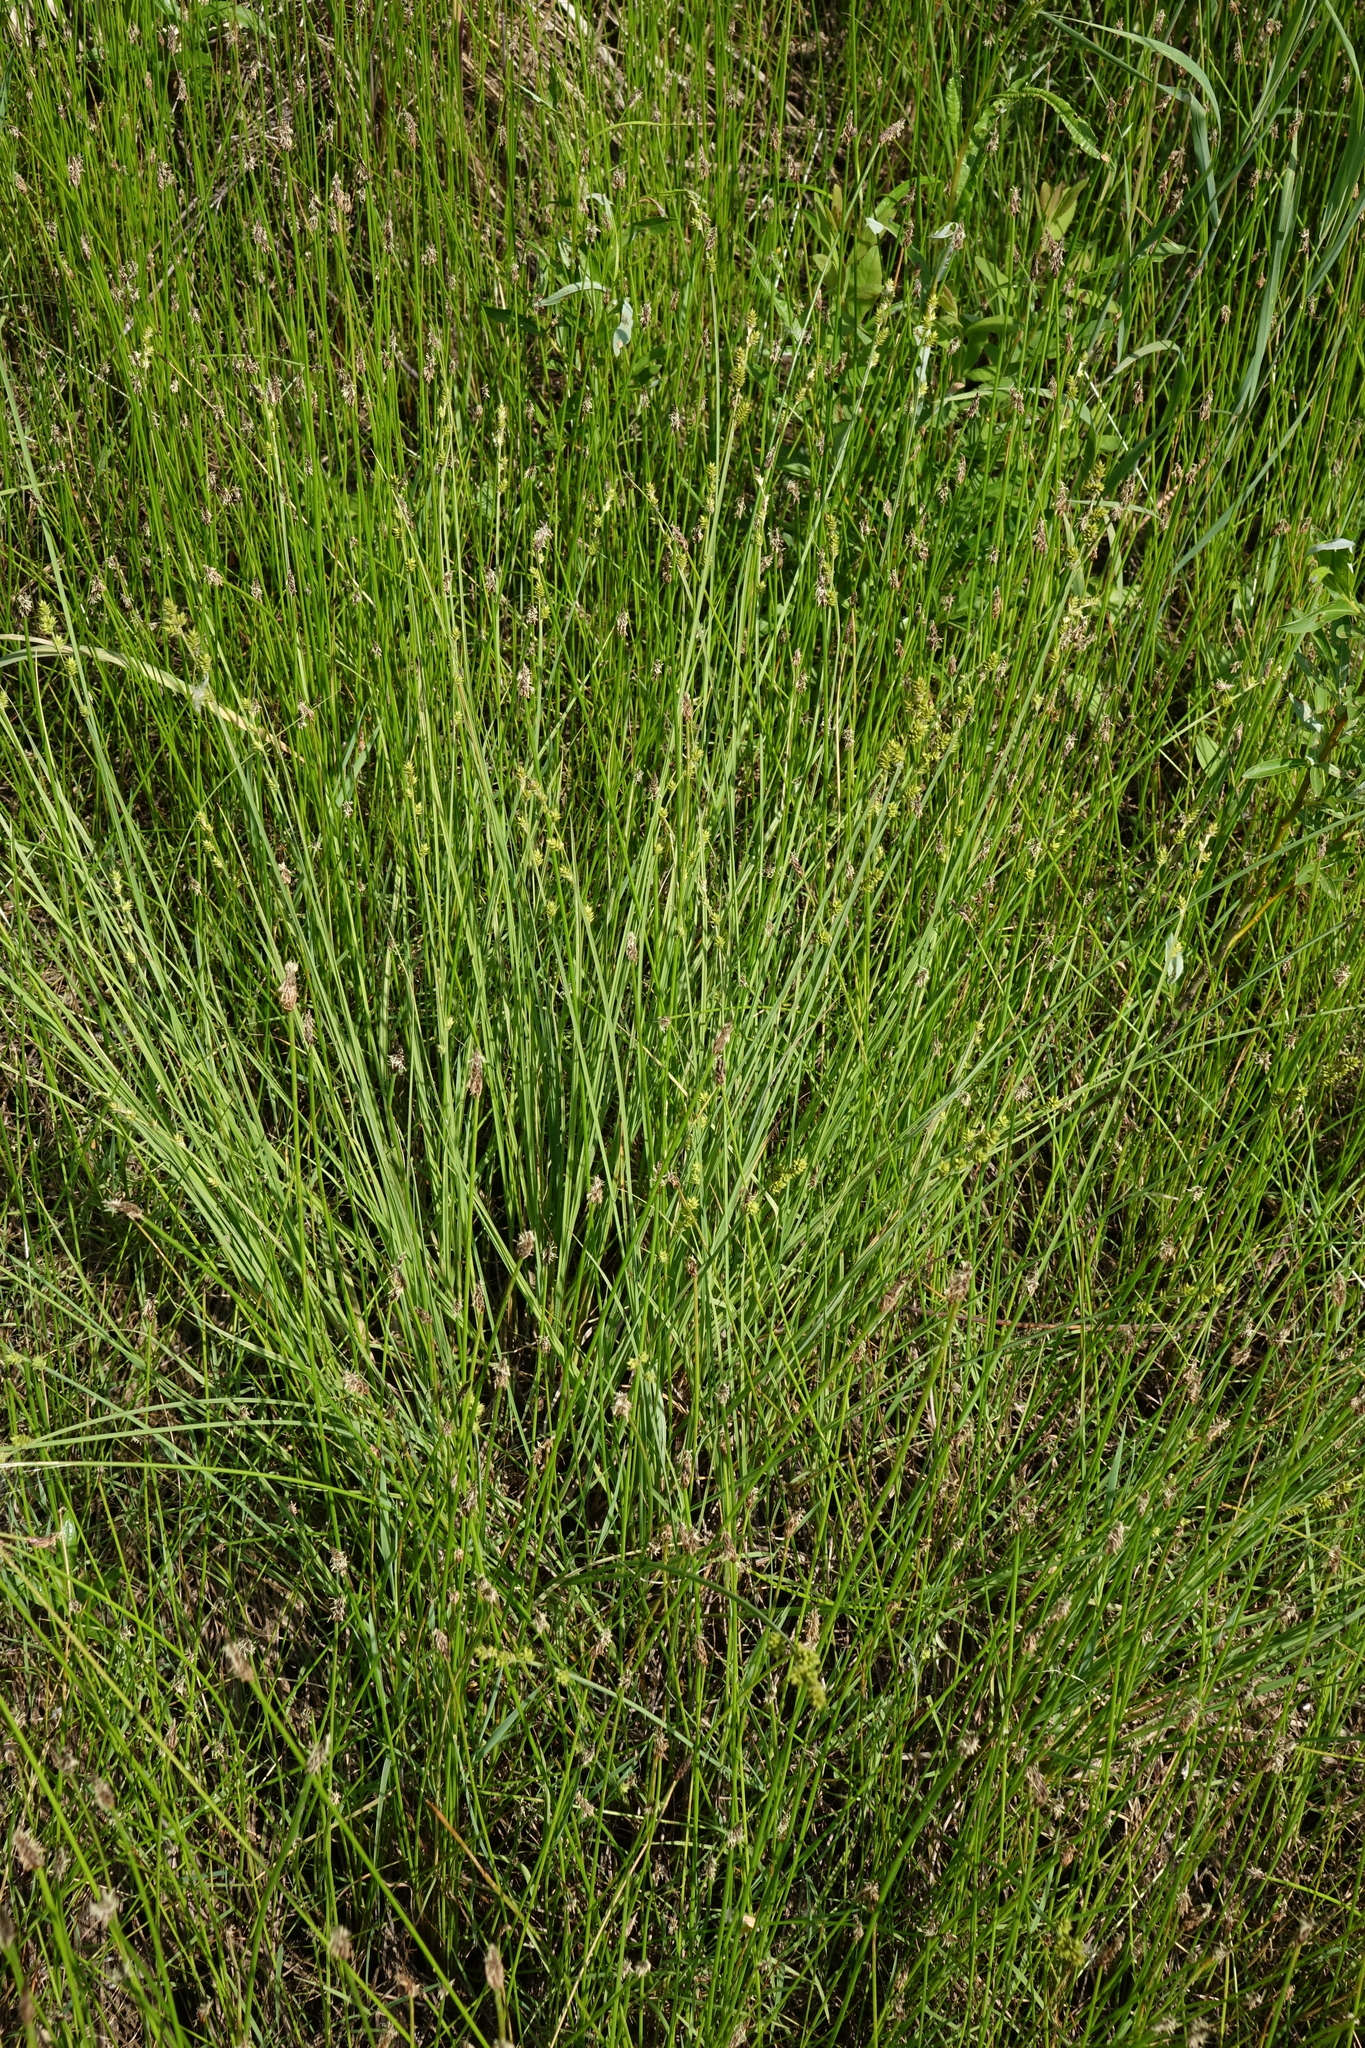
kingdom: Plantae
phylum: Tracheophyta
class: Liliopsida
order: Poales
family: Cyperaceae
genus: Carex
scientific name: Carex canescens
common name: White sedge
